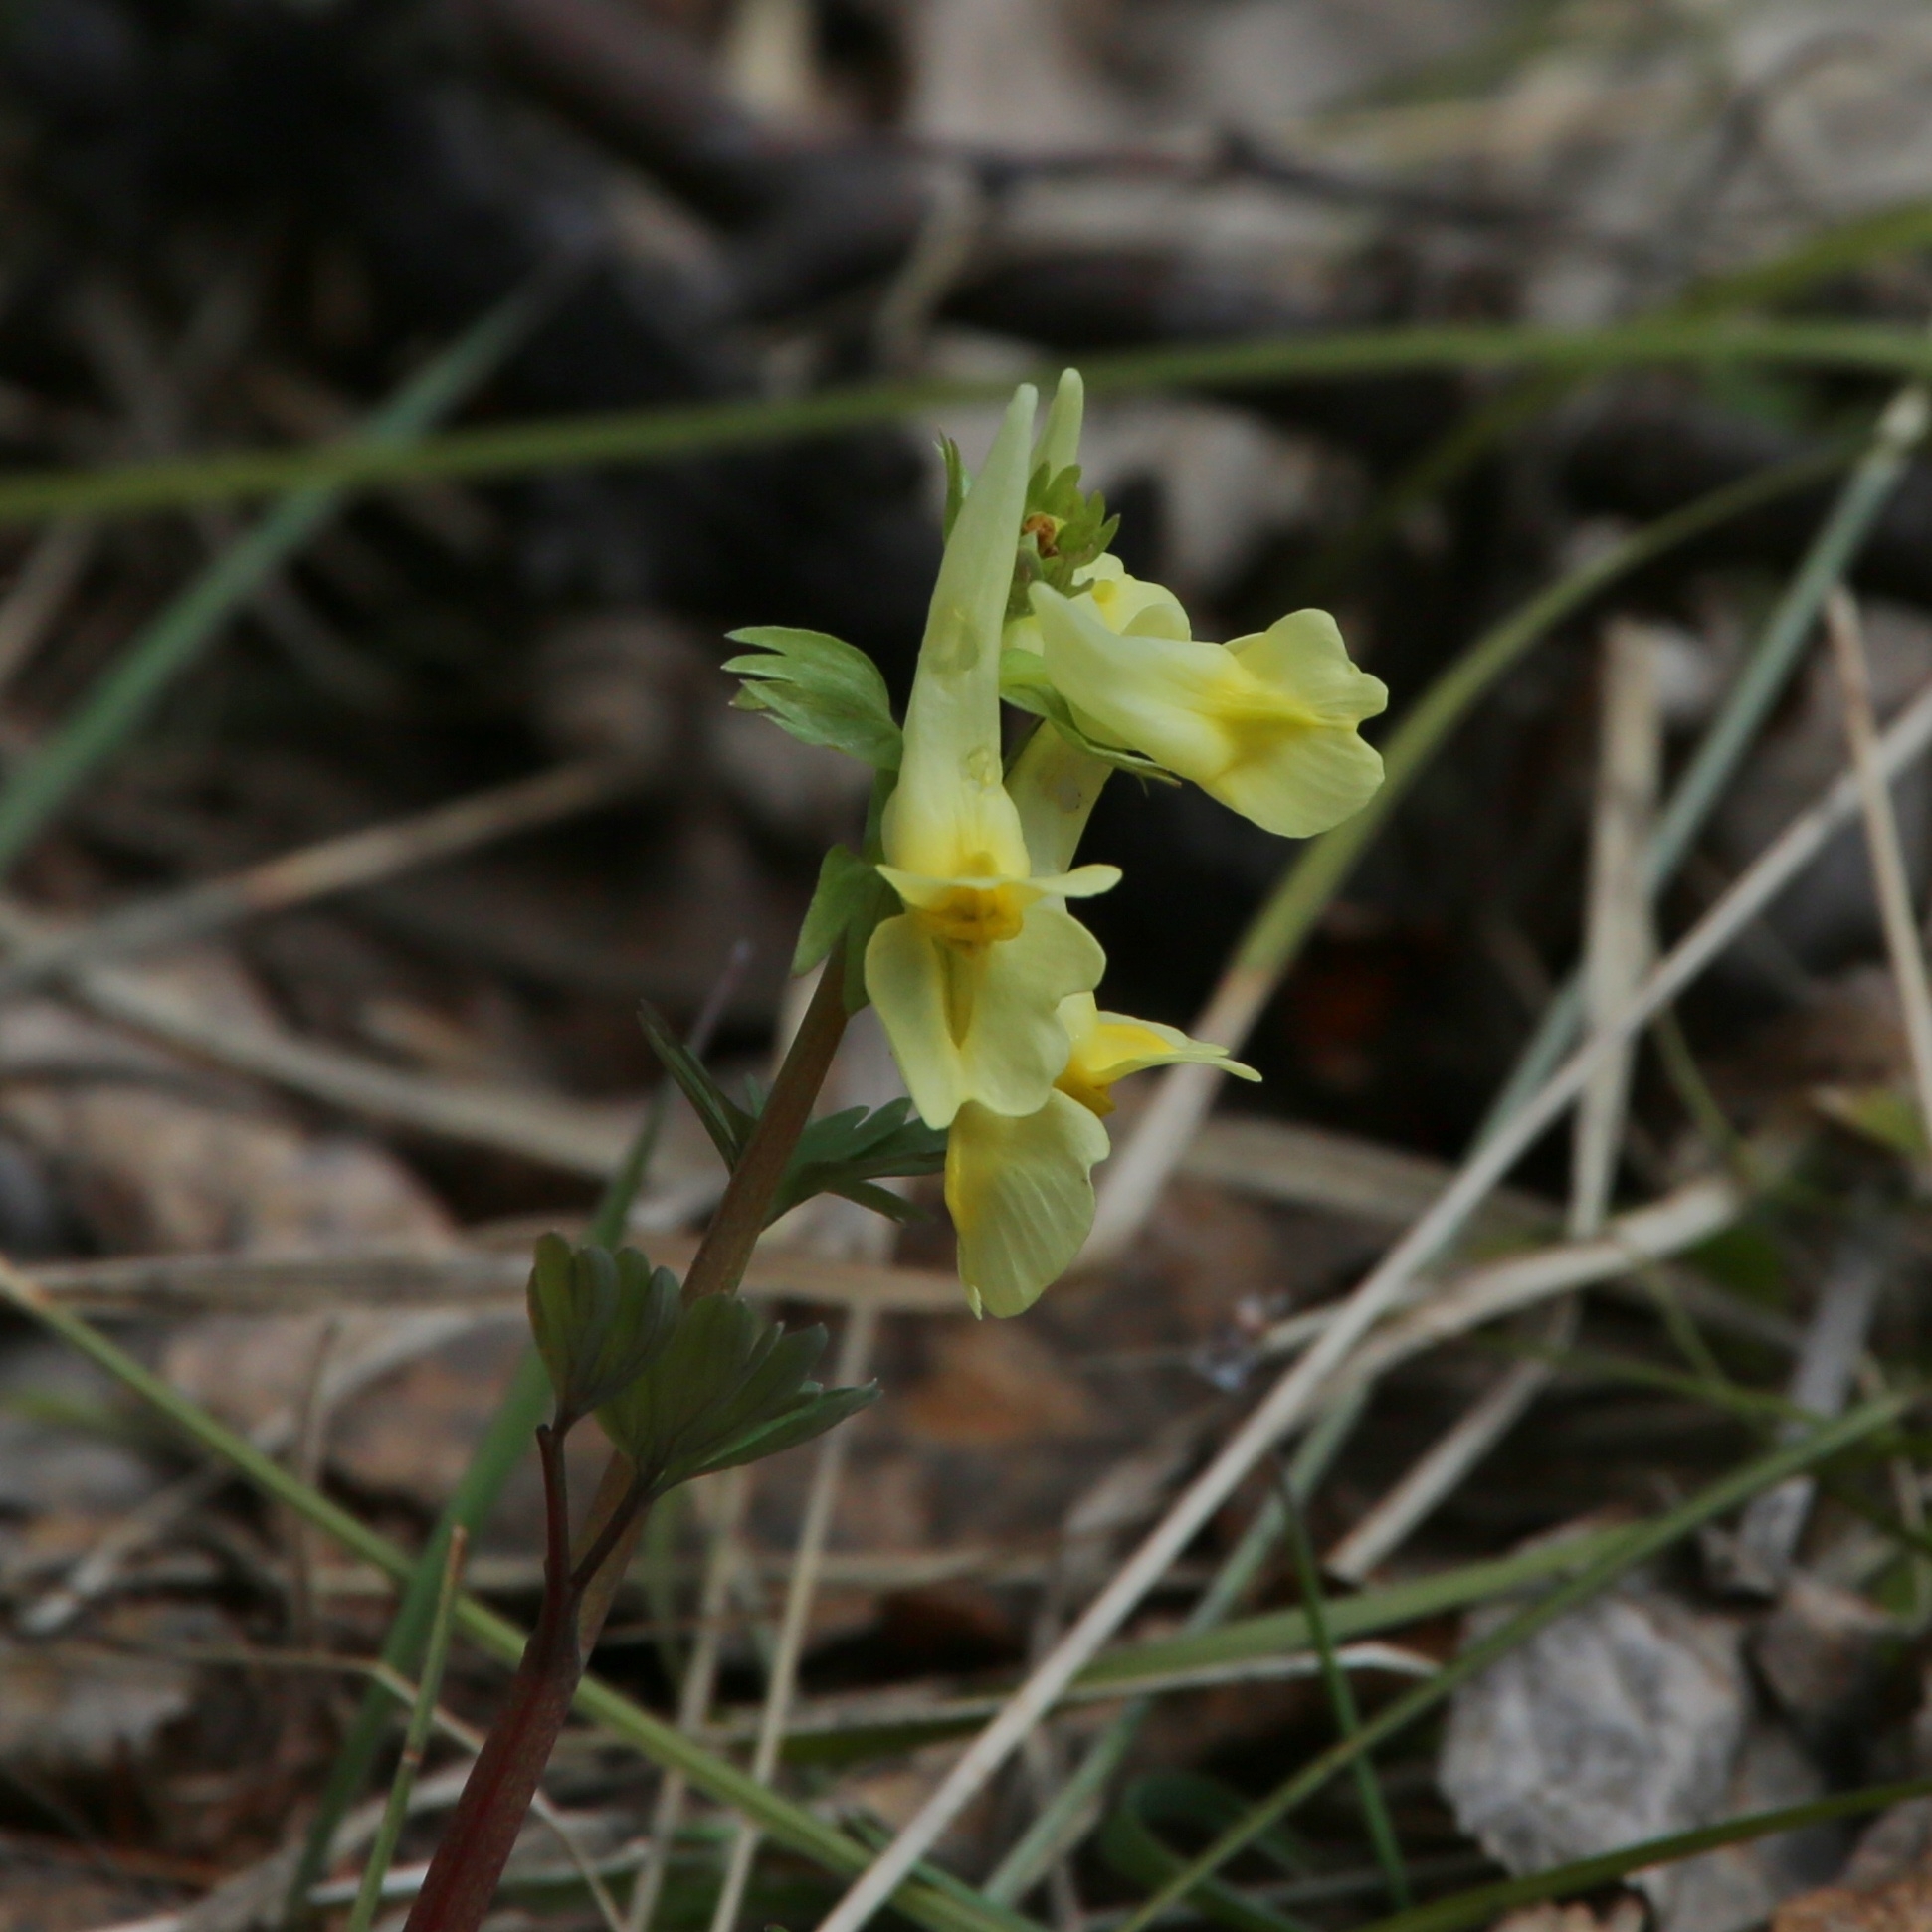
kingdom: Plantae
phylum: Tracheophyta
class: Magnoliopsida
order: Ranunculales
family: Papaveraceae
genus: Corydalis
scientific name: Corydalis bracteata
